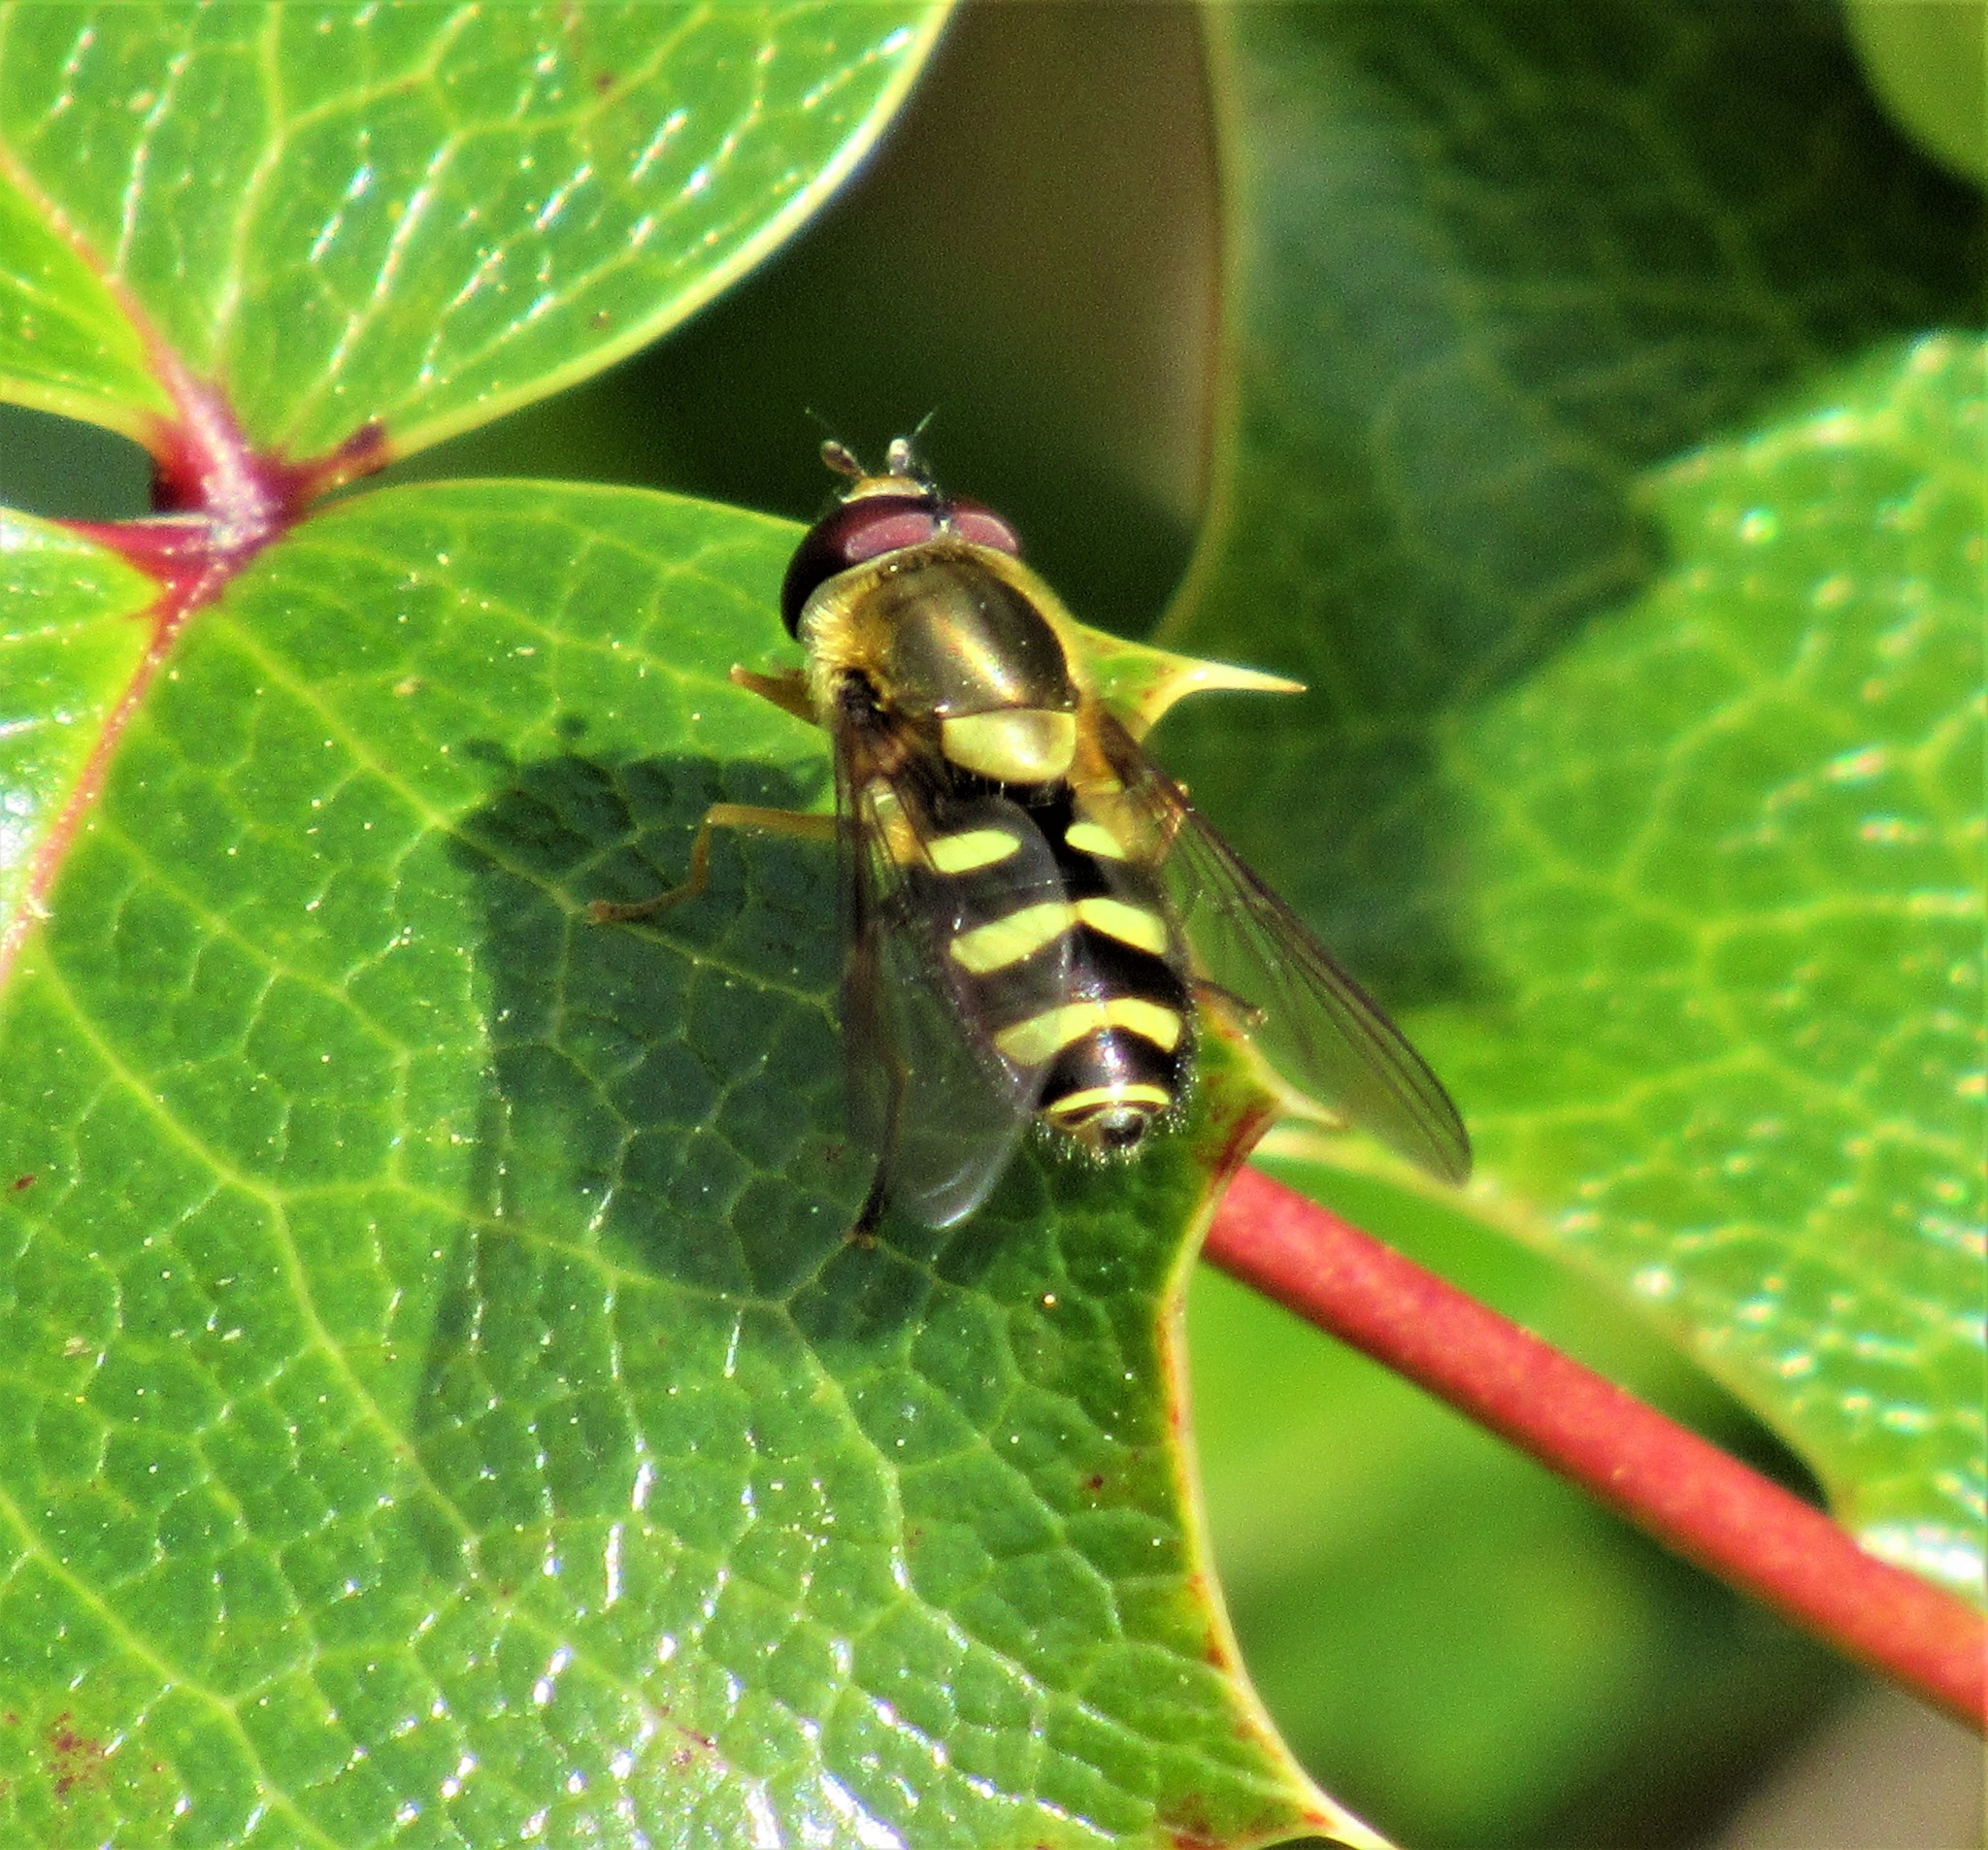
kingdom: Animalia
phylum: Arthropoda
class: Insecta
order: Diptera
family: Syrphidae
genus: Syrphus
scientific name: Syrphus opinator
